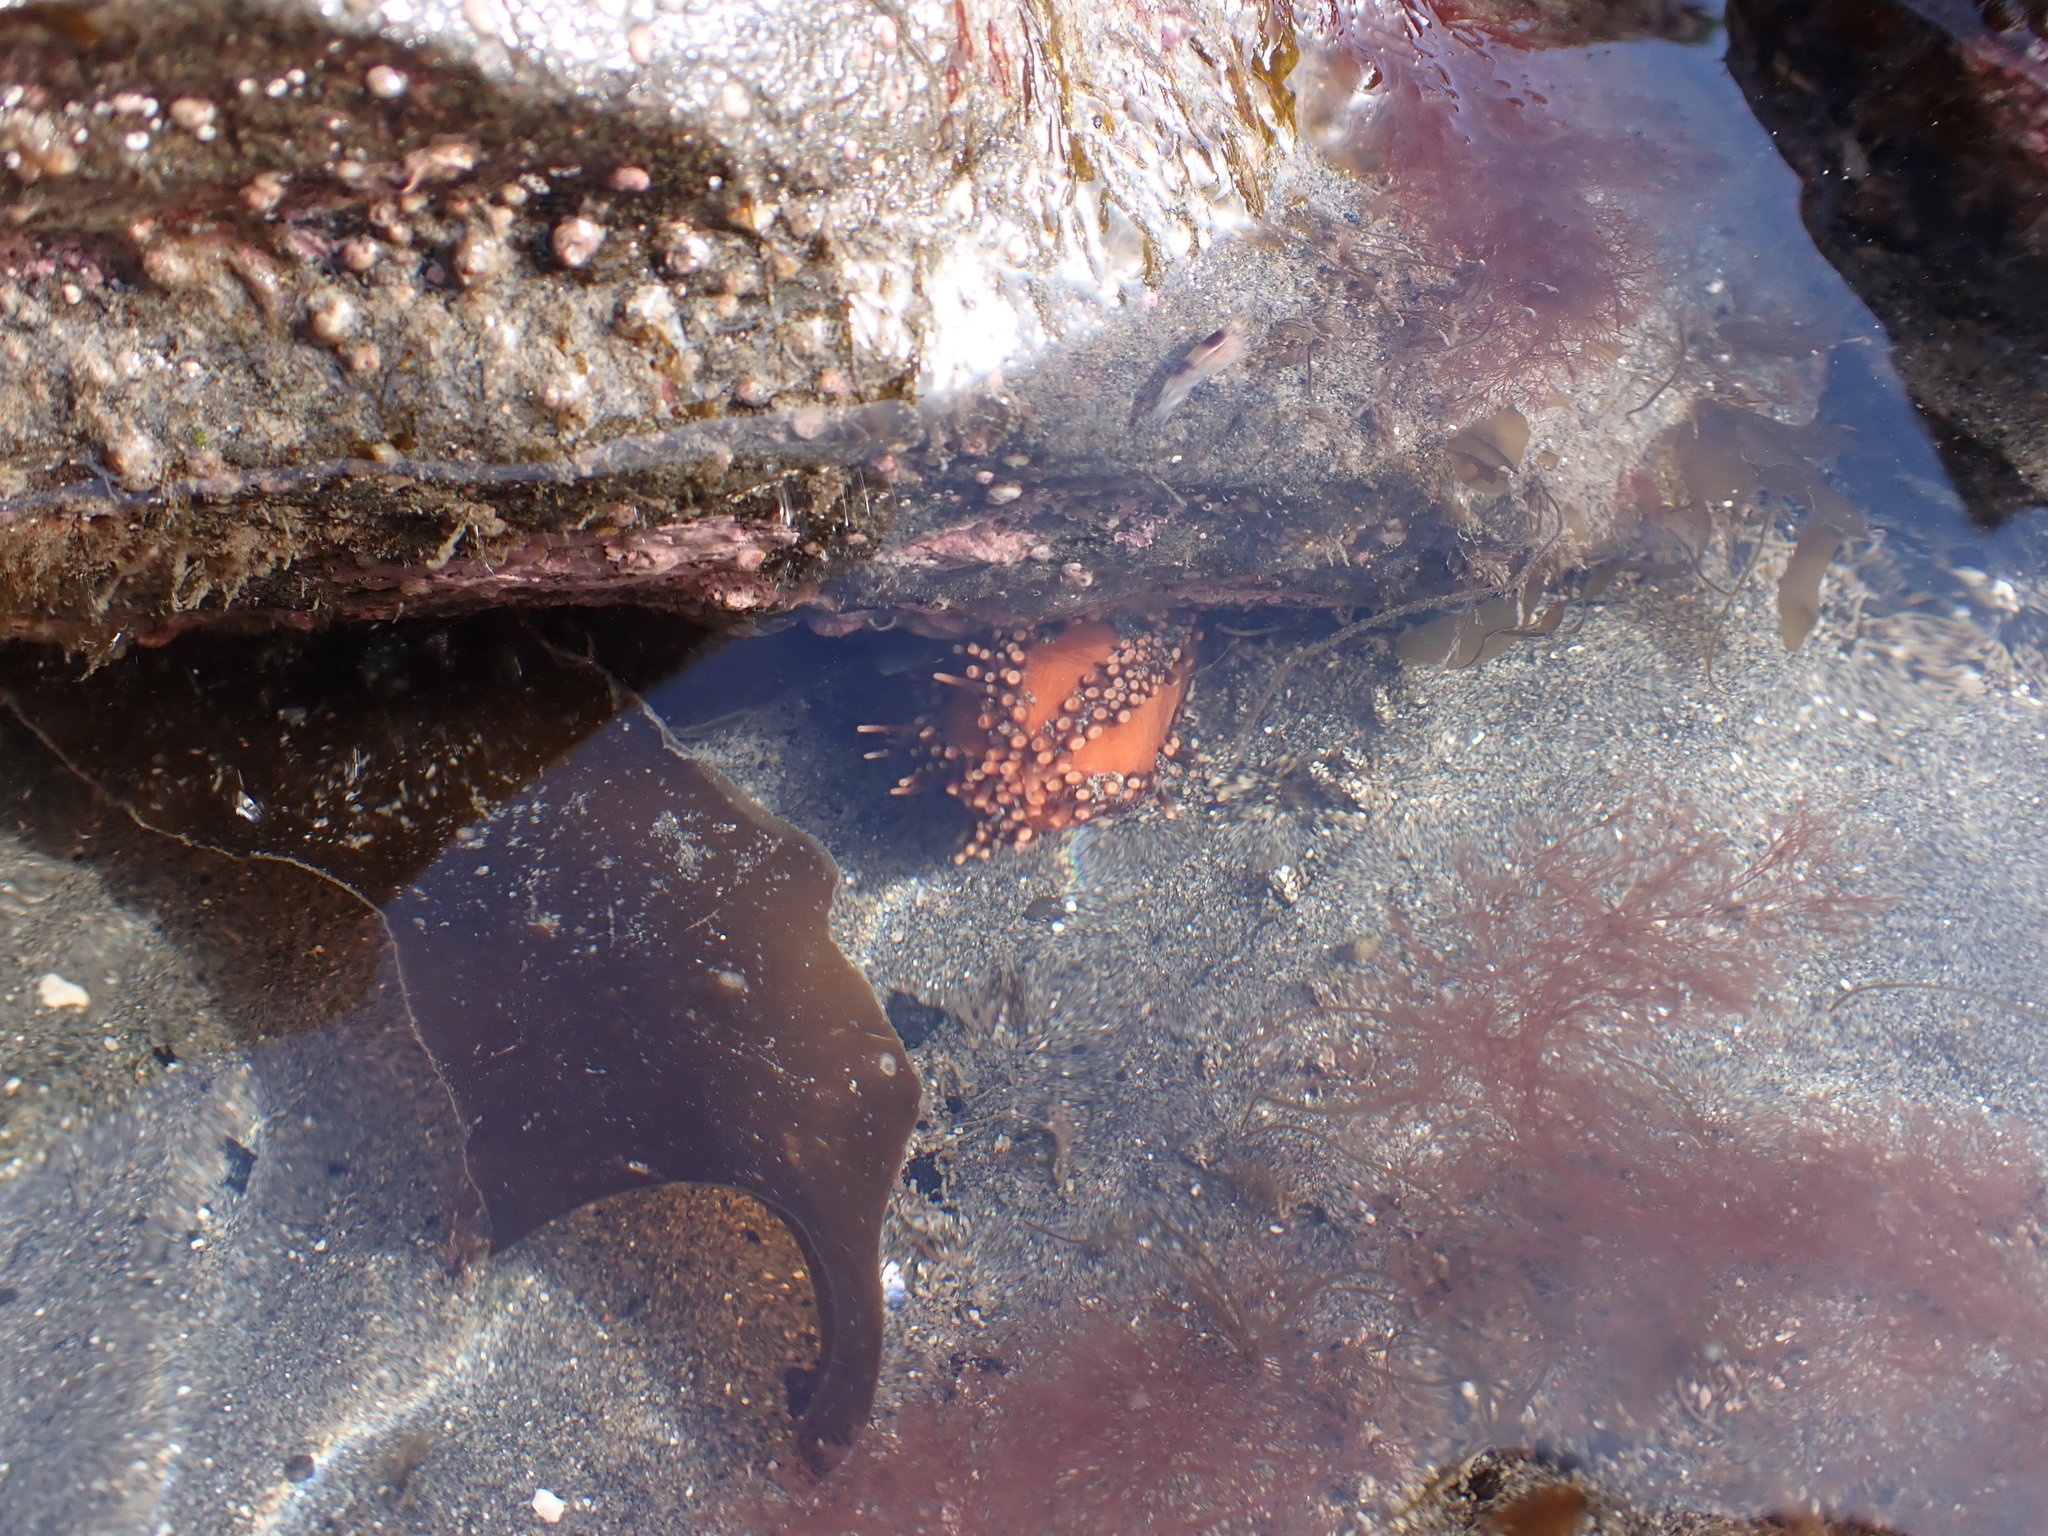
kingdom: Animalia
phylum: Echinodermata
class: Holothuroidea
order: Dendrochirotida
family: Cucumariidae
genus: Cucumaria
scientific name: Cucumaria miniata
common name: Orange sea cucumber
